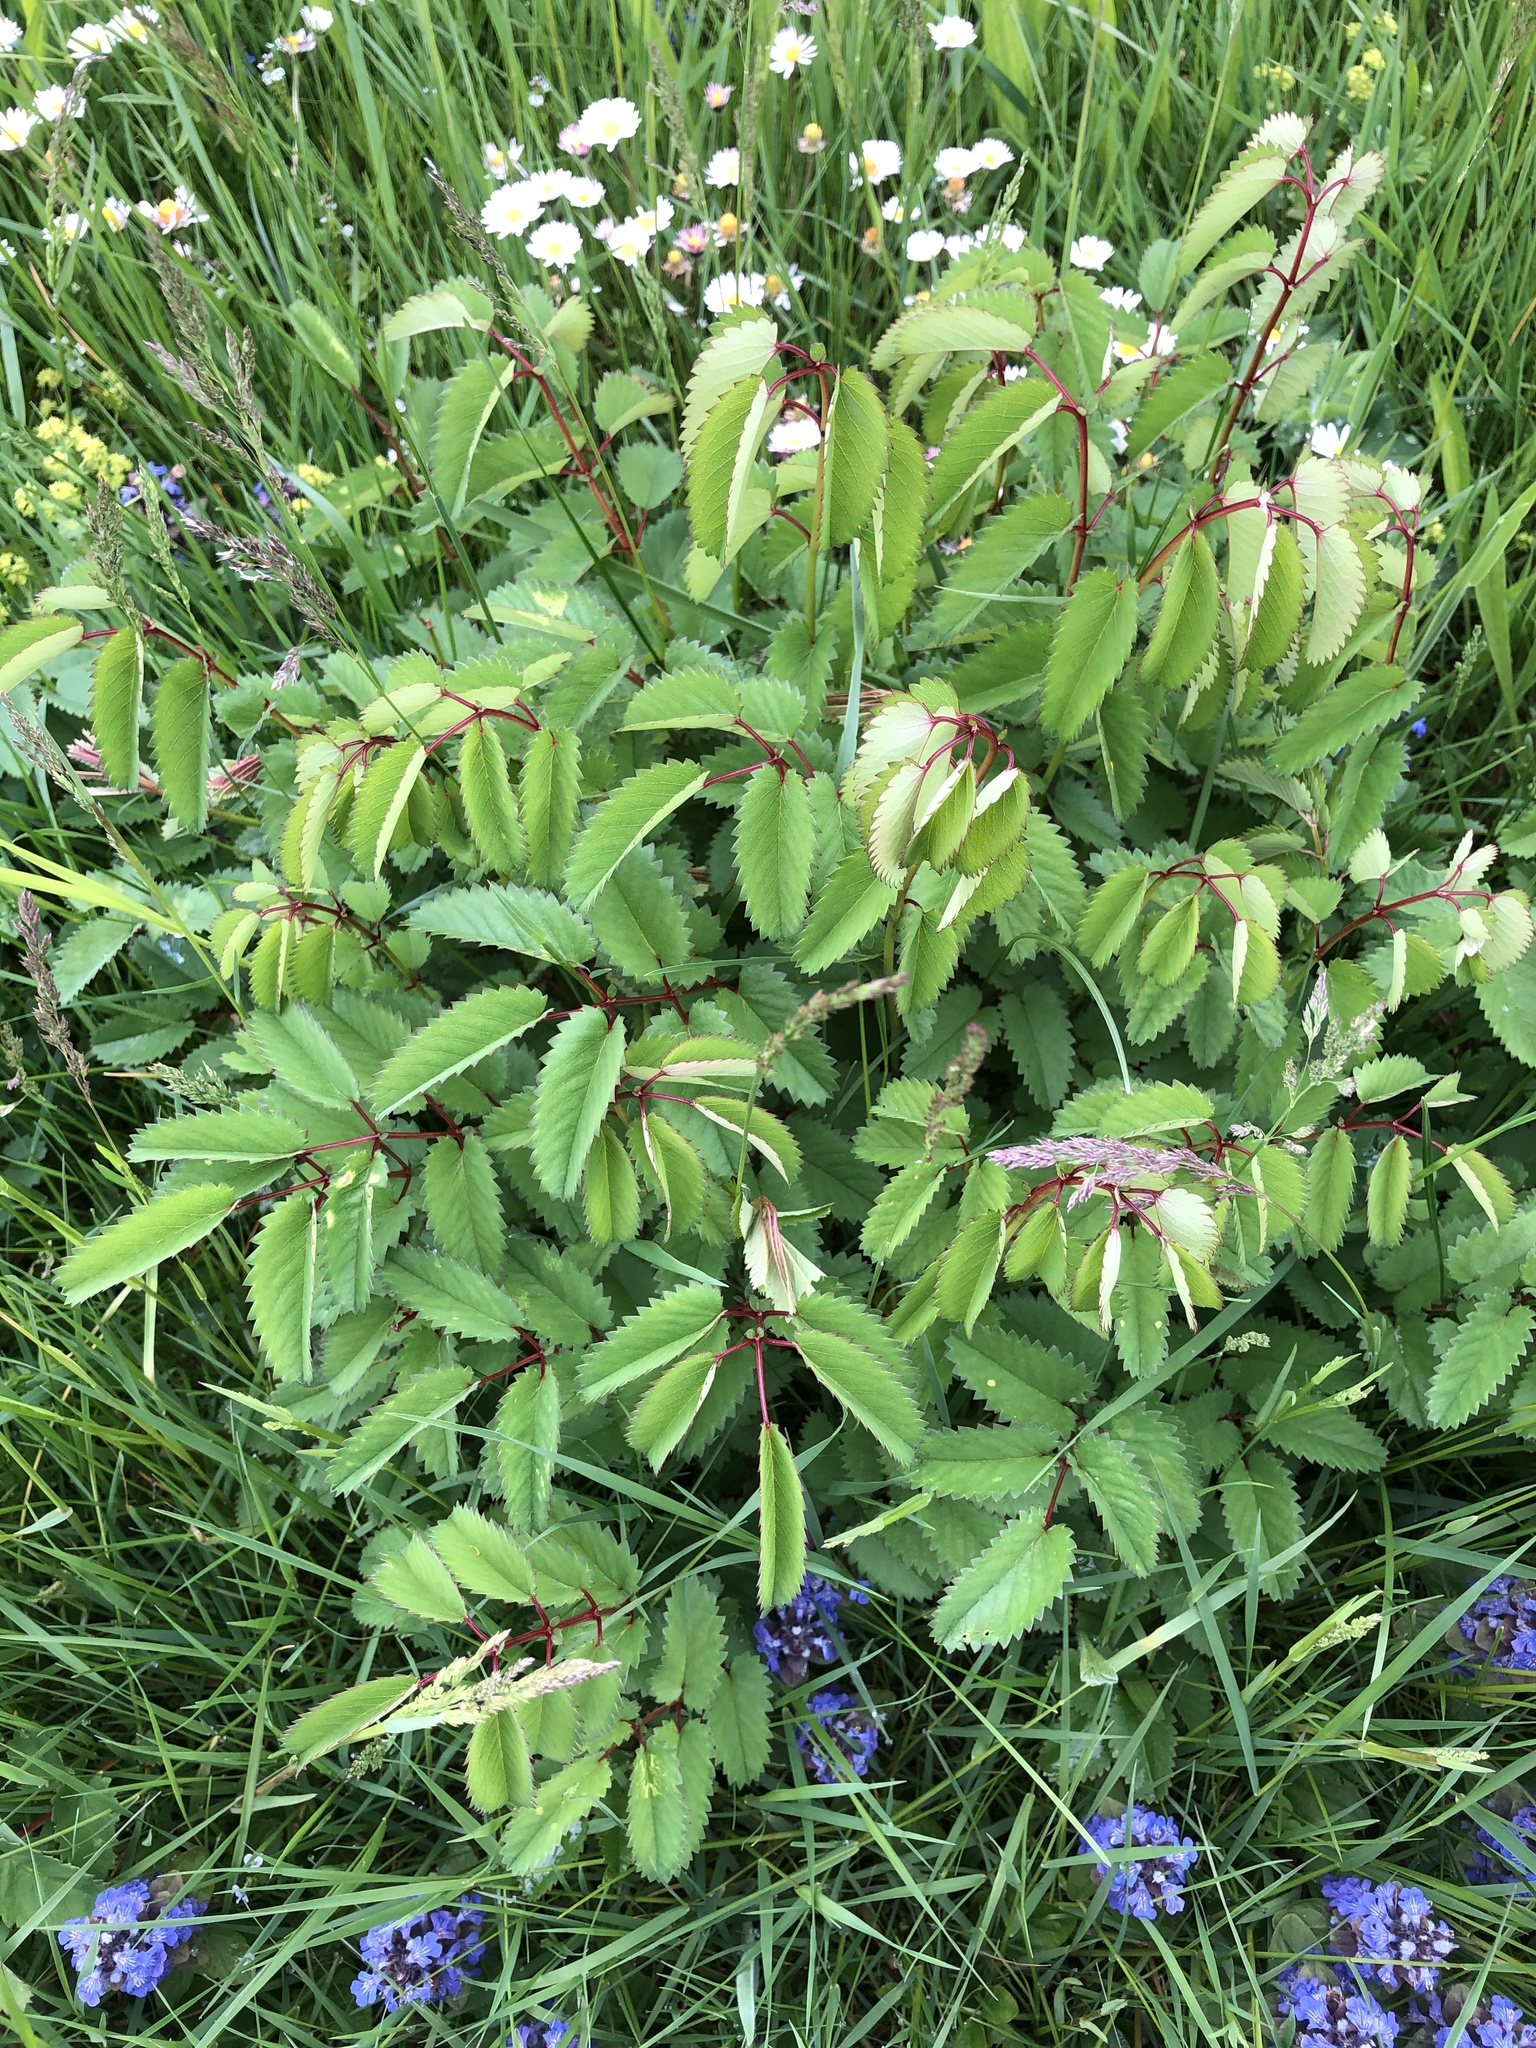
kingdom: Plantae
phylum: Tracheophyta
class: Magnoliopsida
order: Rosales
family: Rosaceae
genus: Sanguisorba
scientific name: Sanguisorba officinalis
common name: Great burnet
